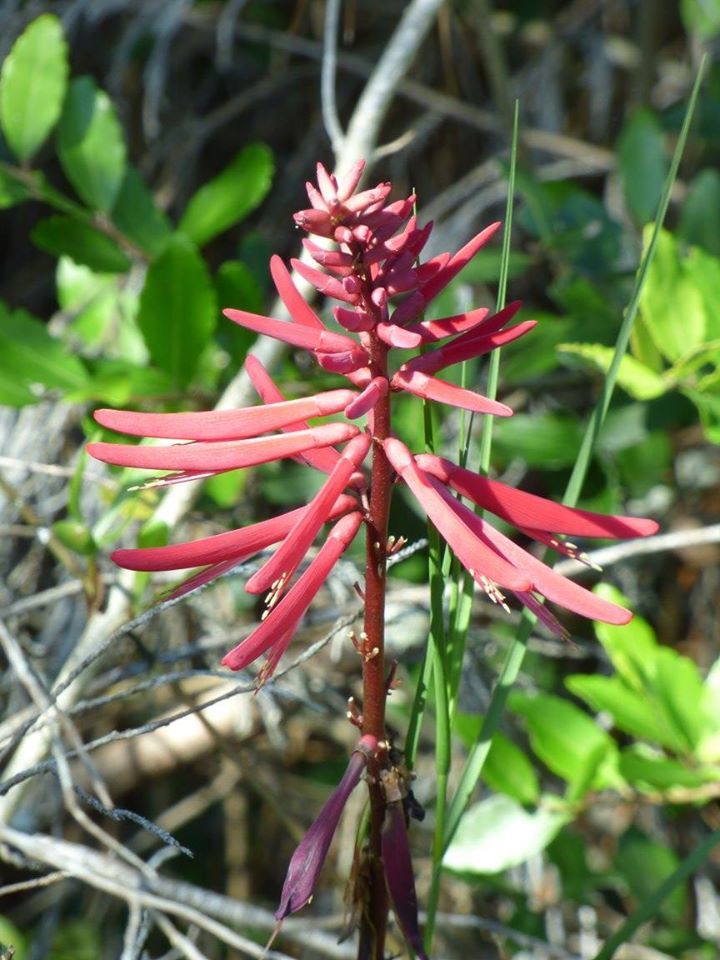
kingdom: Plantae
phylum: Tracheophyta
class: Magnoliopsida
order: Fabales
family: Fabaceae
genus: Erythrina
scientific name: Erythrina herbacea
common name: Coral-bean
